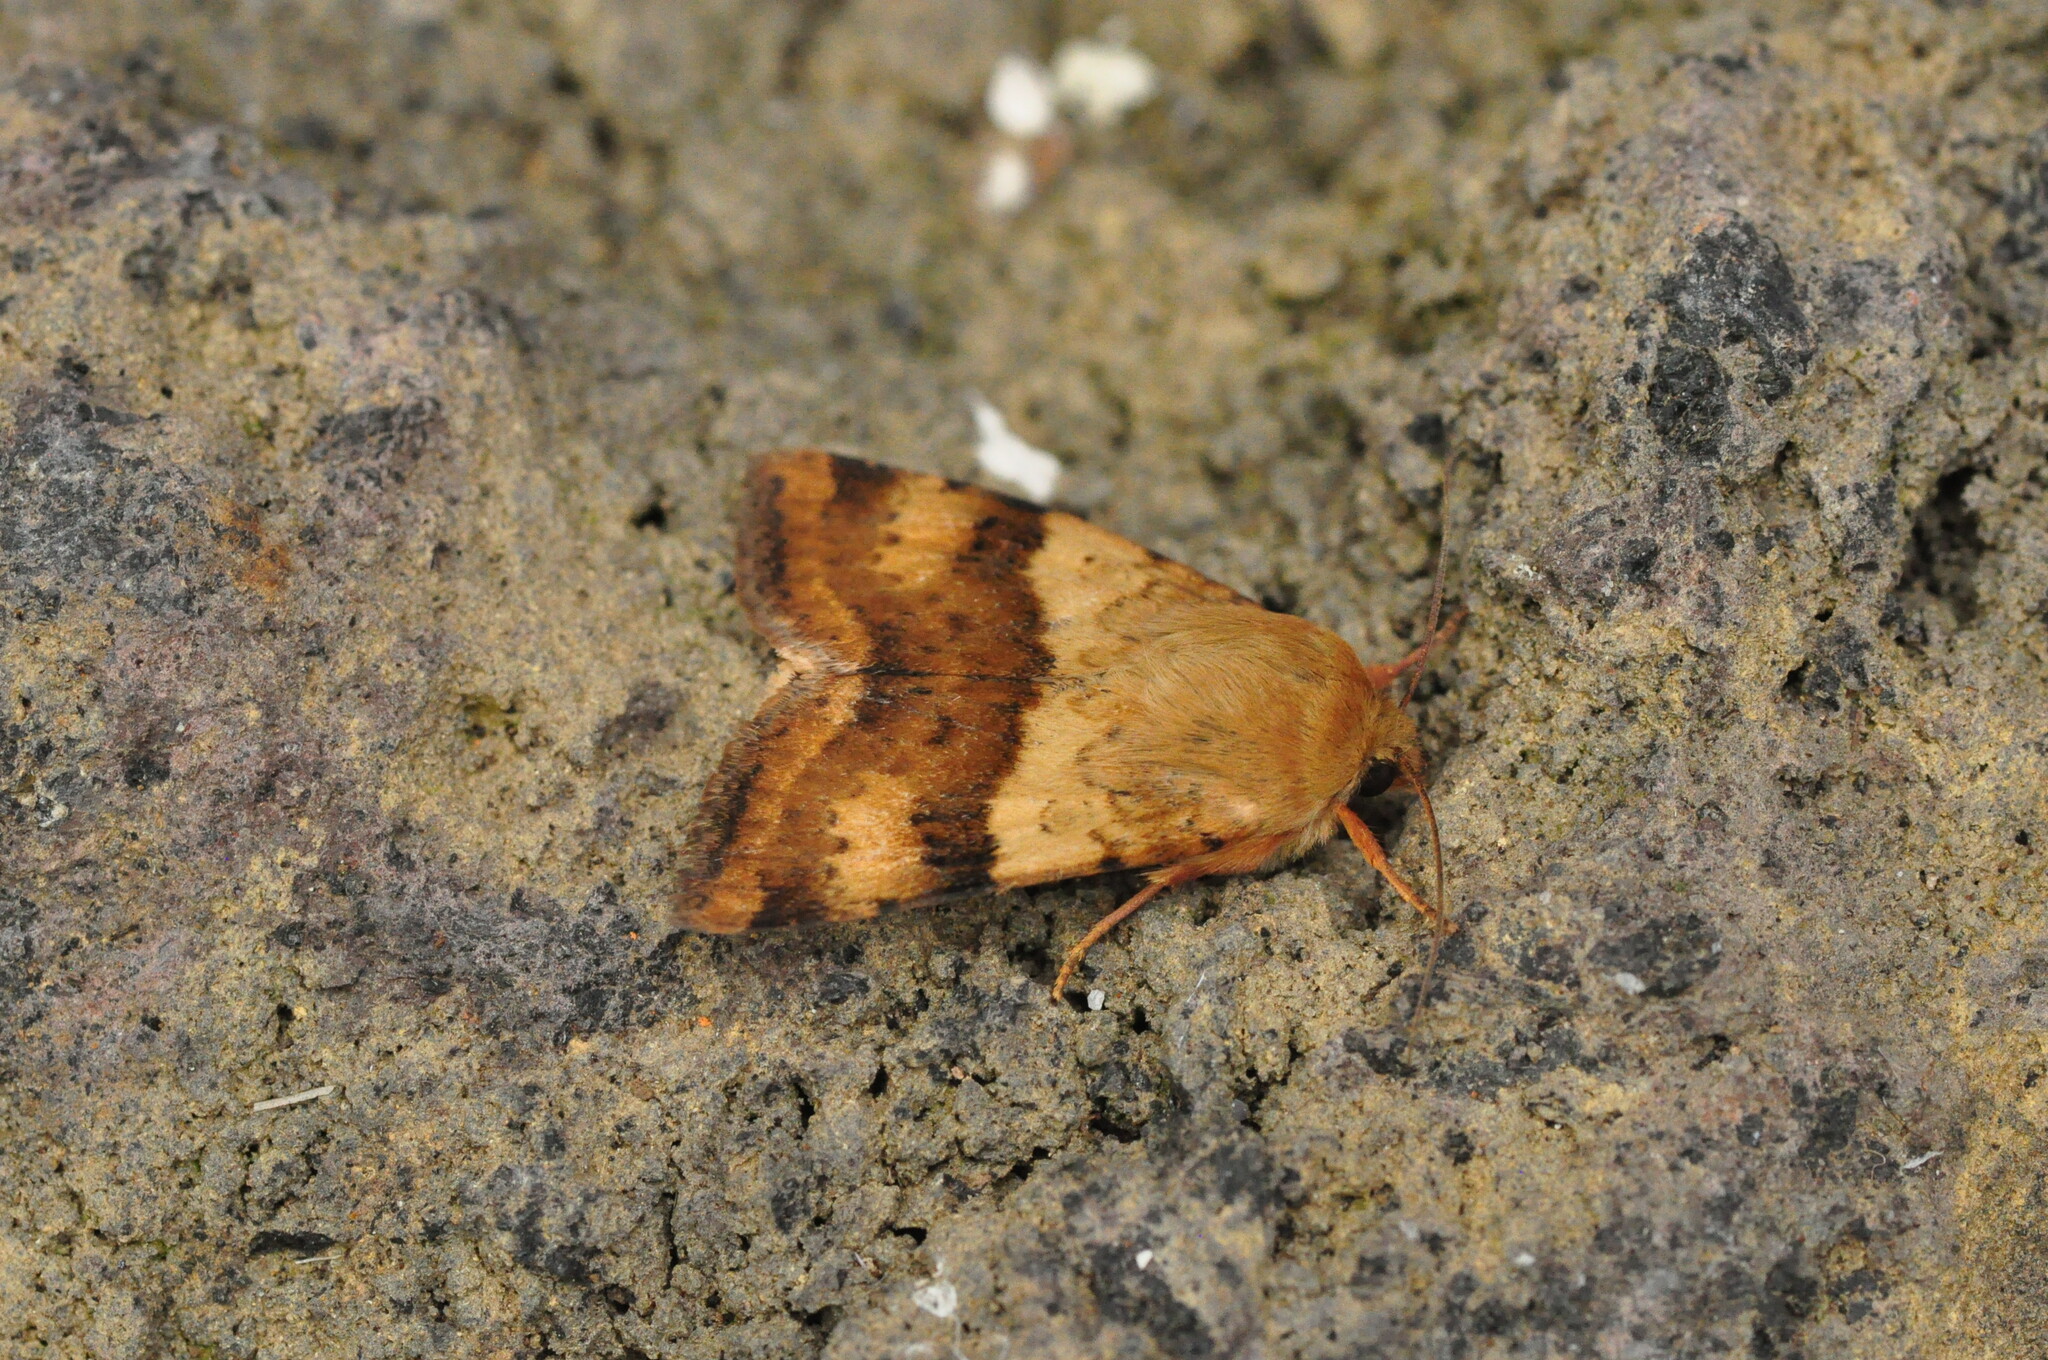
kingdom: Animalia
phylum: Arthropoda
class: Insecta
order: Lepidoptera
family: Noctuidae
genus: Heliothis
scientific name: Heliothis viriplaca
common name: Marbled clover
